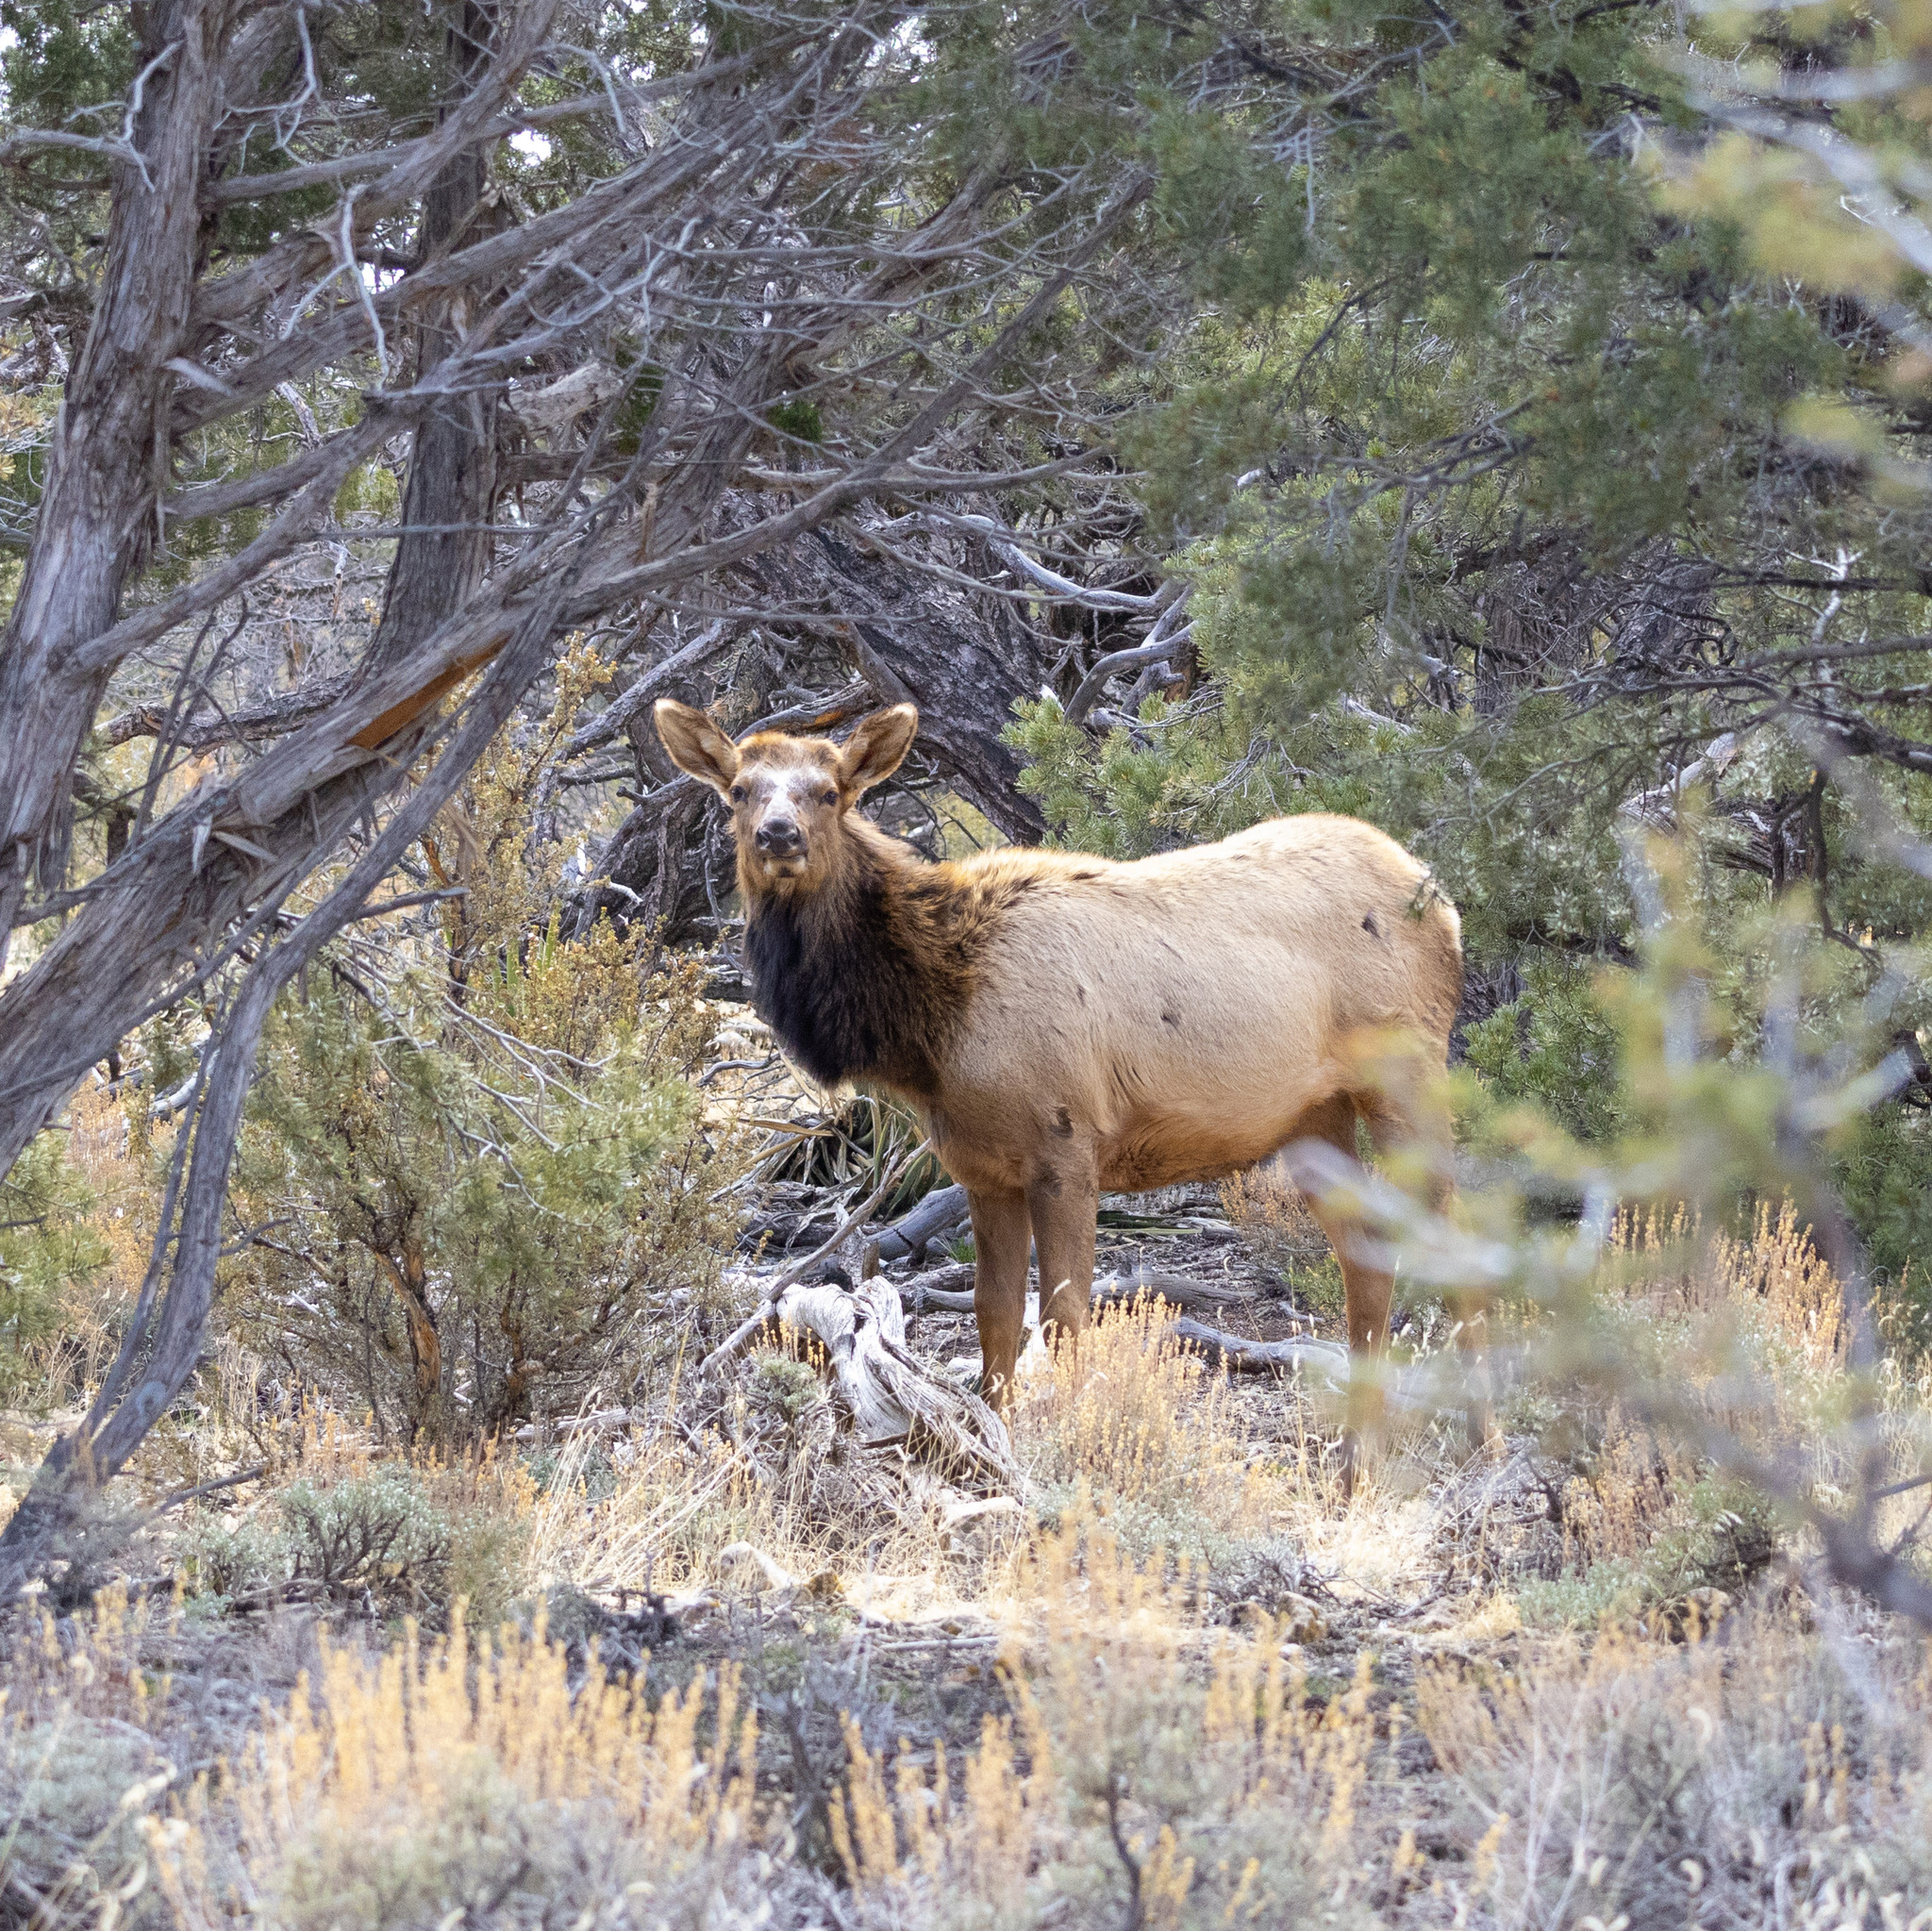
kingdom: Animalia
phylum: Chordata
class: Mammalia
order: Artiodactyla
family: Cervidae
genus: Cervus
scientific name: Cervus elaphus
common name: Red deer
